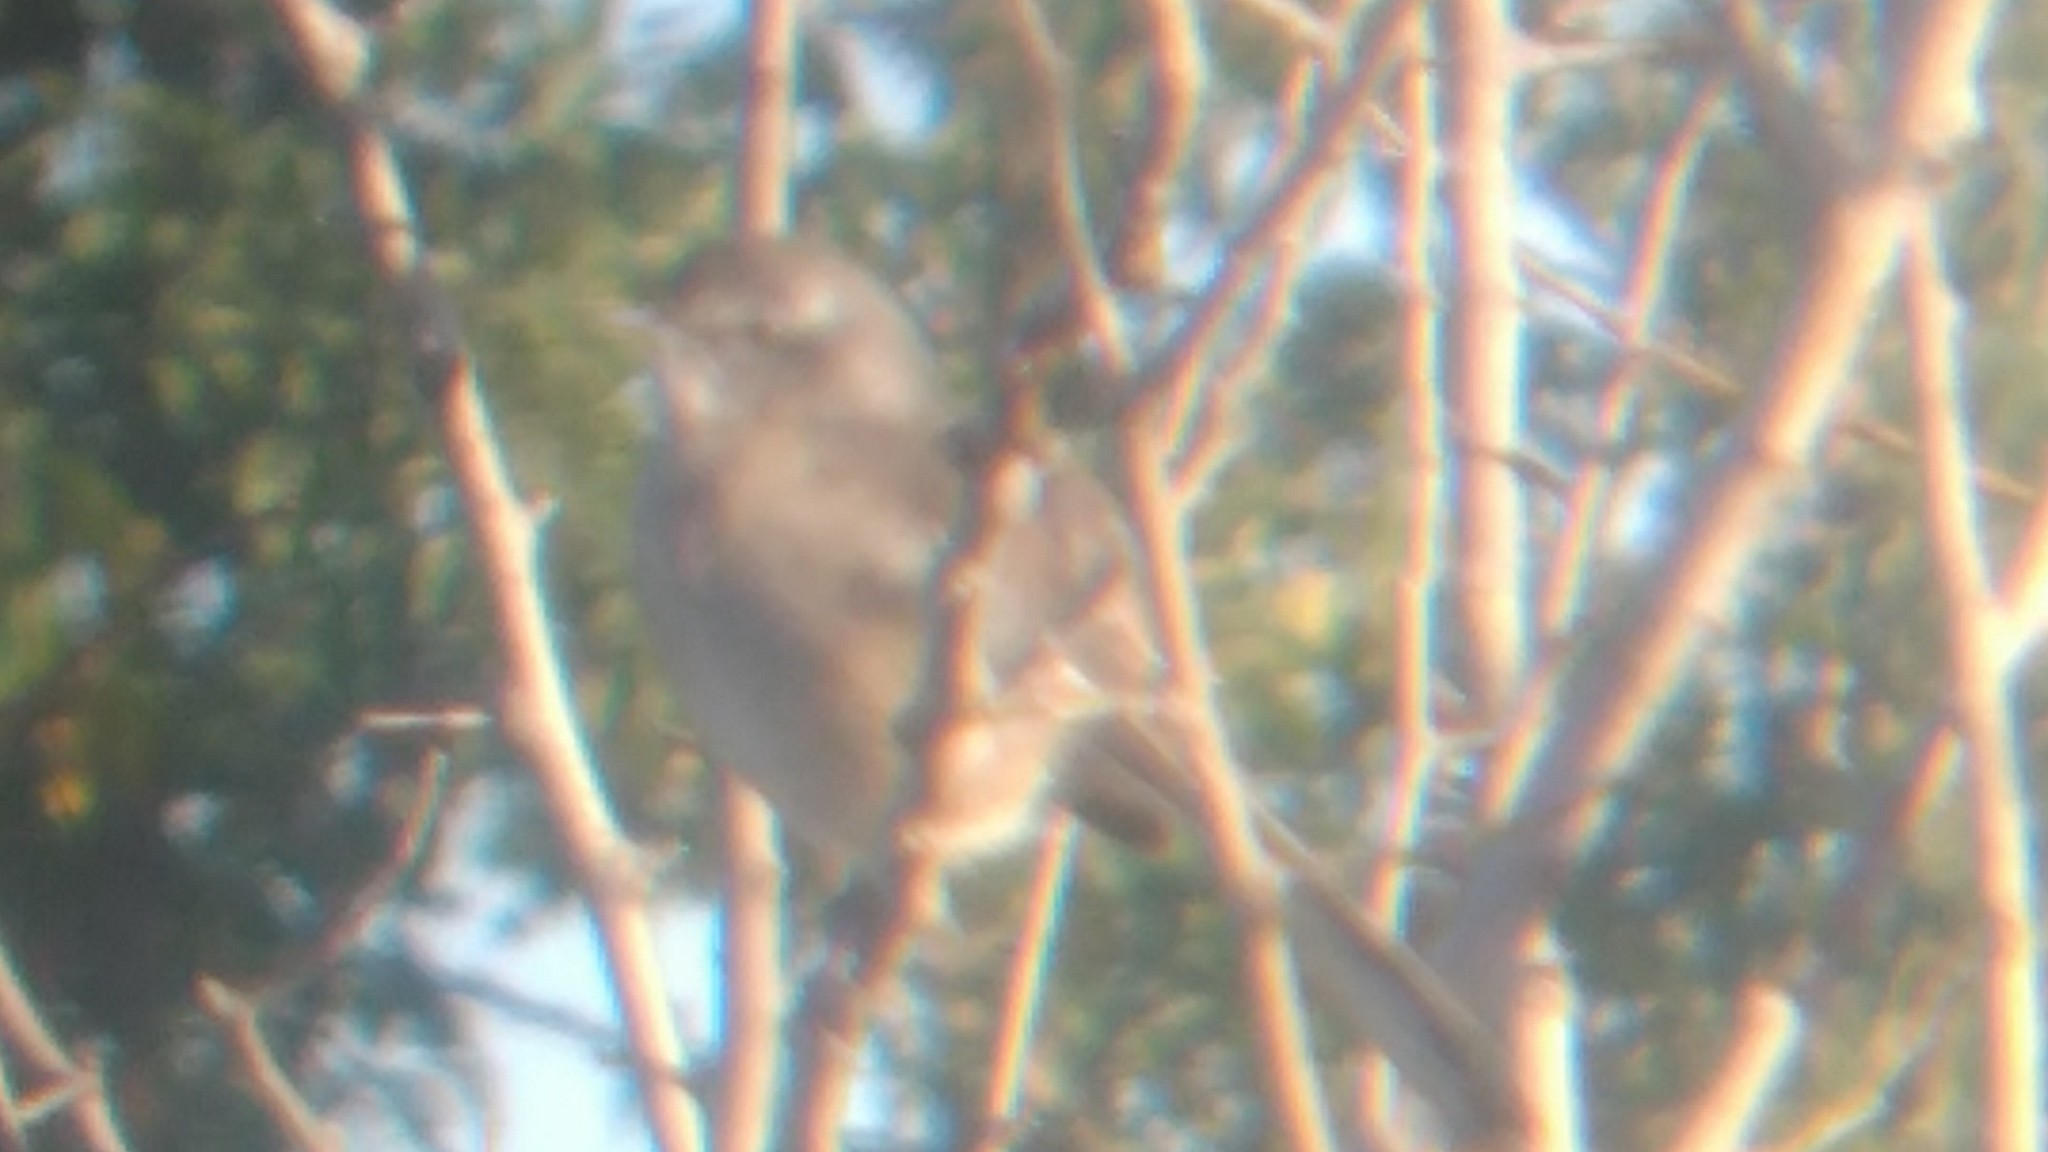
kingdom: Animalia
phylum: Chordata
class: Aves
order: Passeriformes
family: Mimidae
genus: Mimus
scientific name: Mimus triurus
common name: White-banded mockingbird
